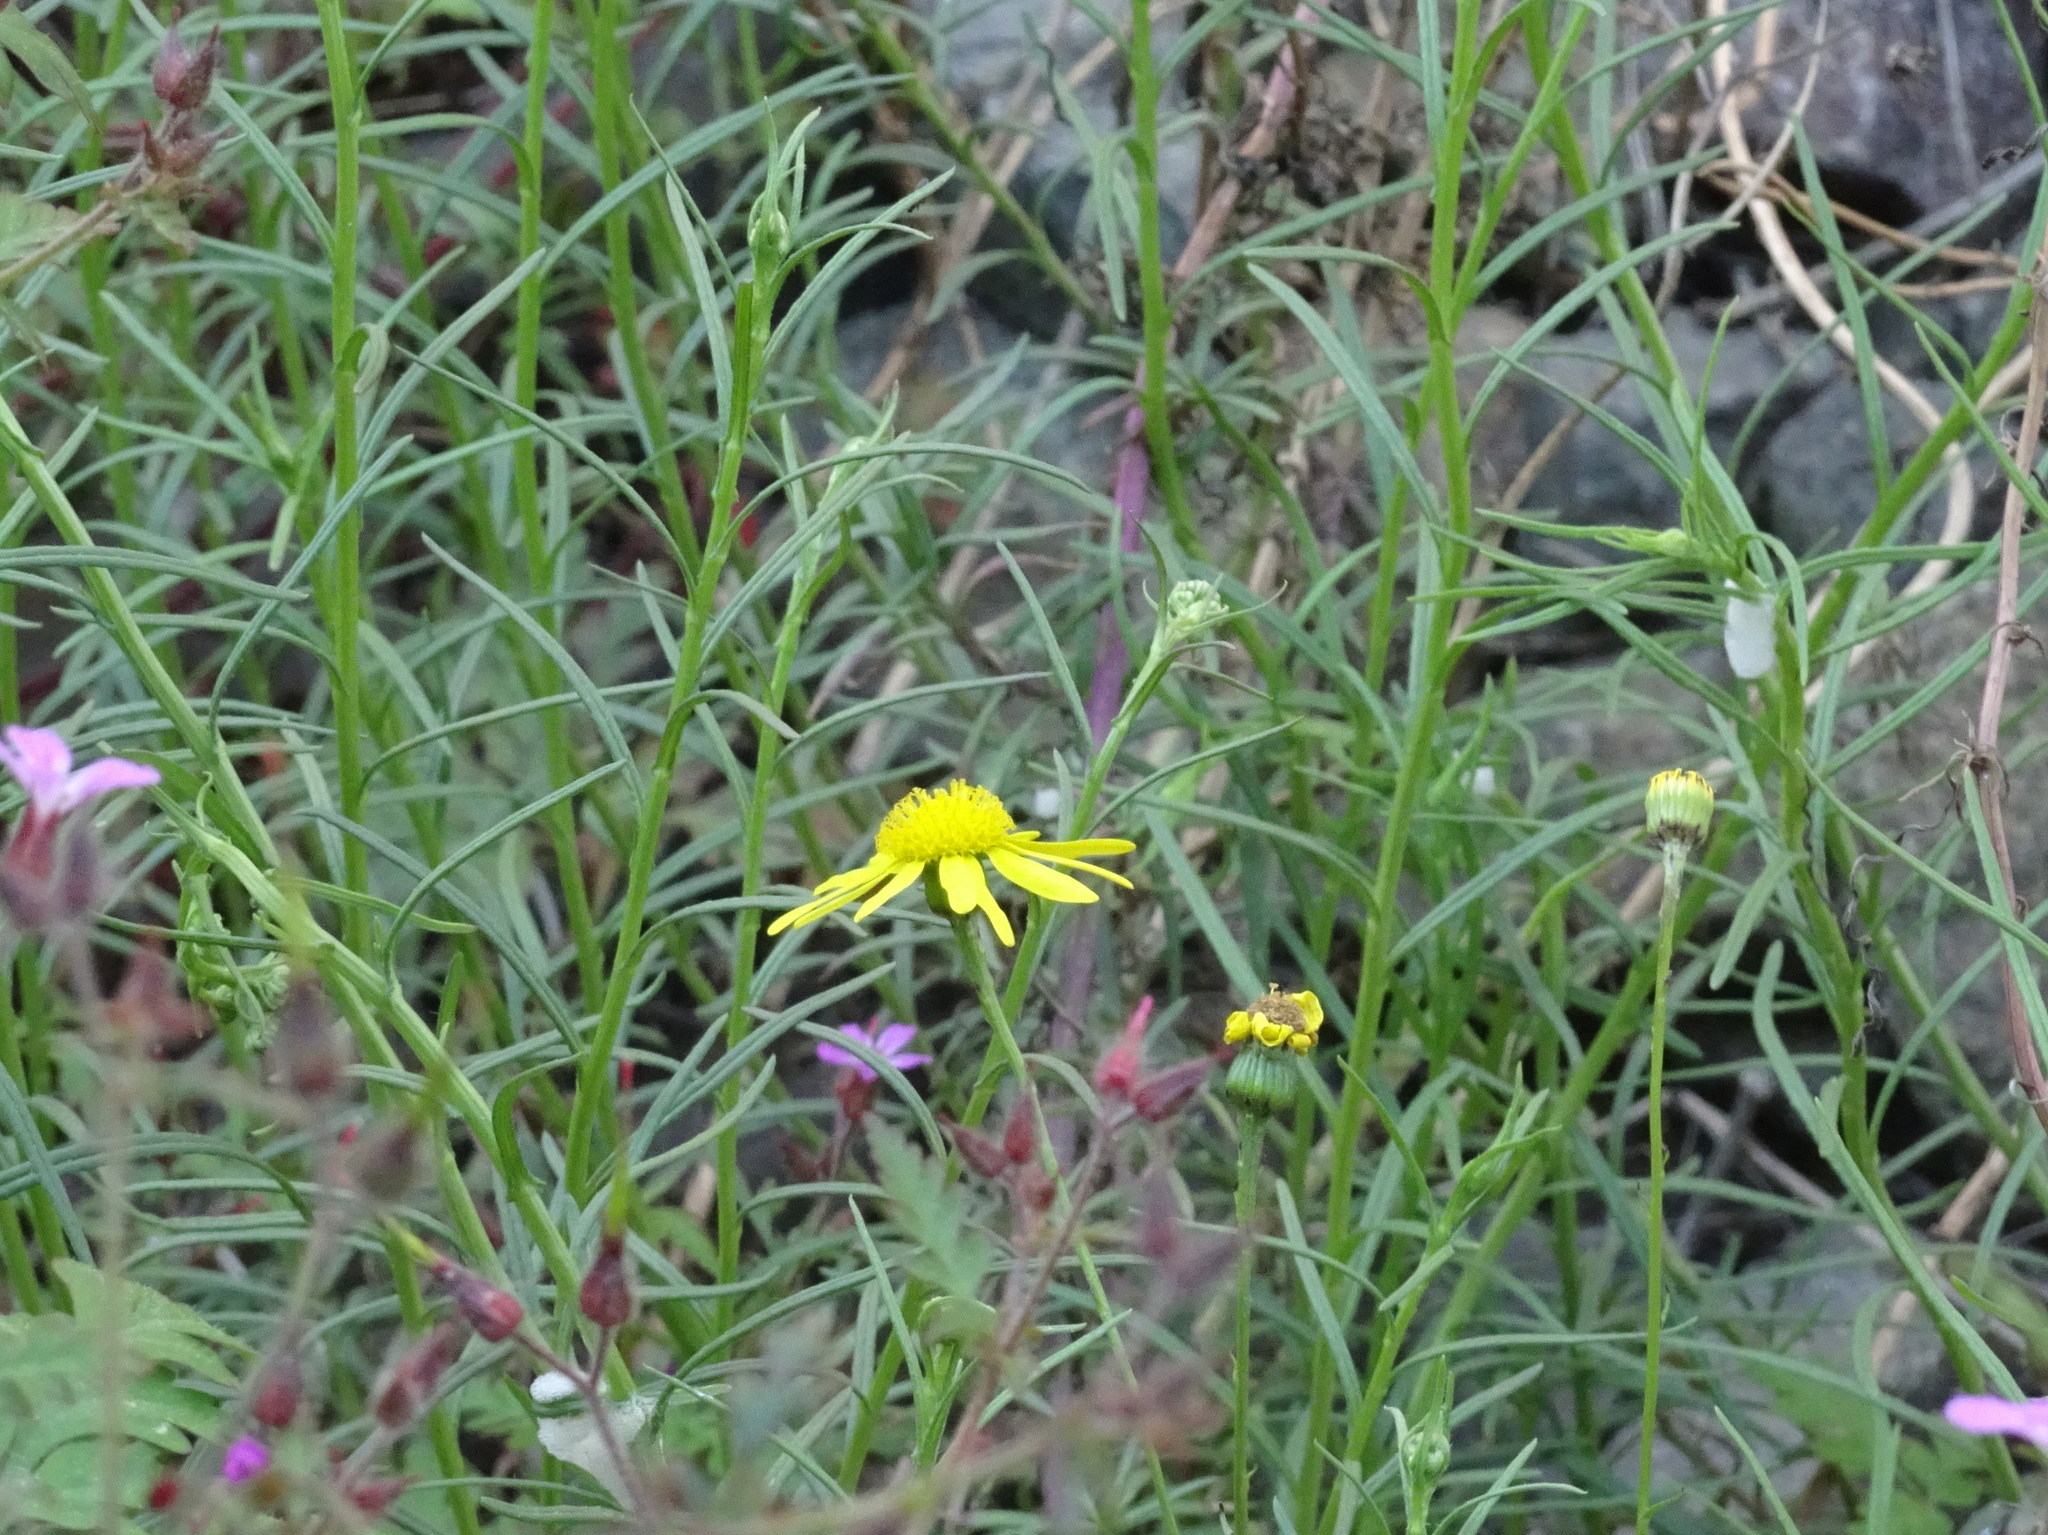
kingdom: Plantae
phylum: Tracheophyta
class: Magnoliopsida
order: Asterales
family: Asteraceae
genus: Senecio
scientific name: Senecio inaequidens
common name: Narrow-leaved ragwort
